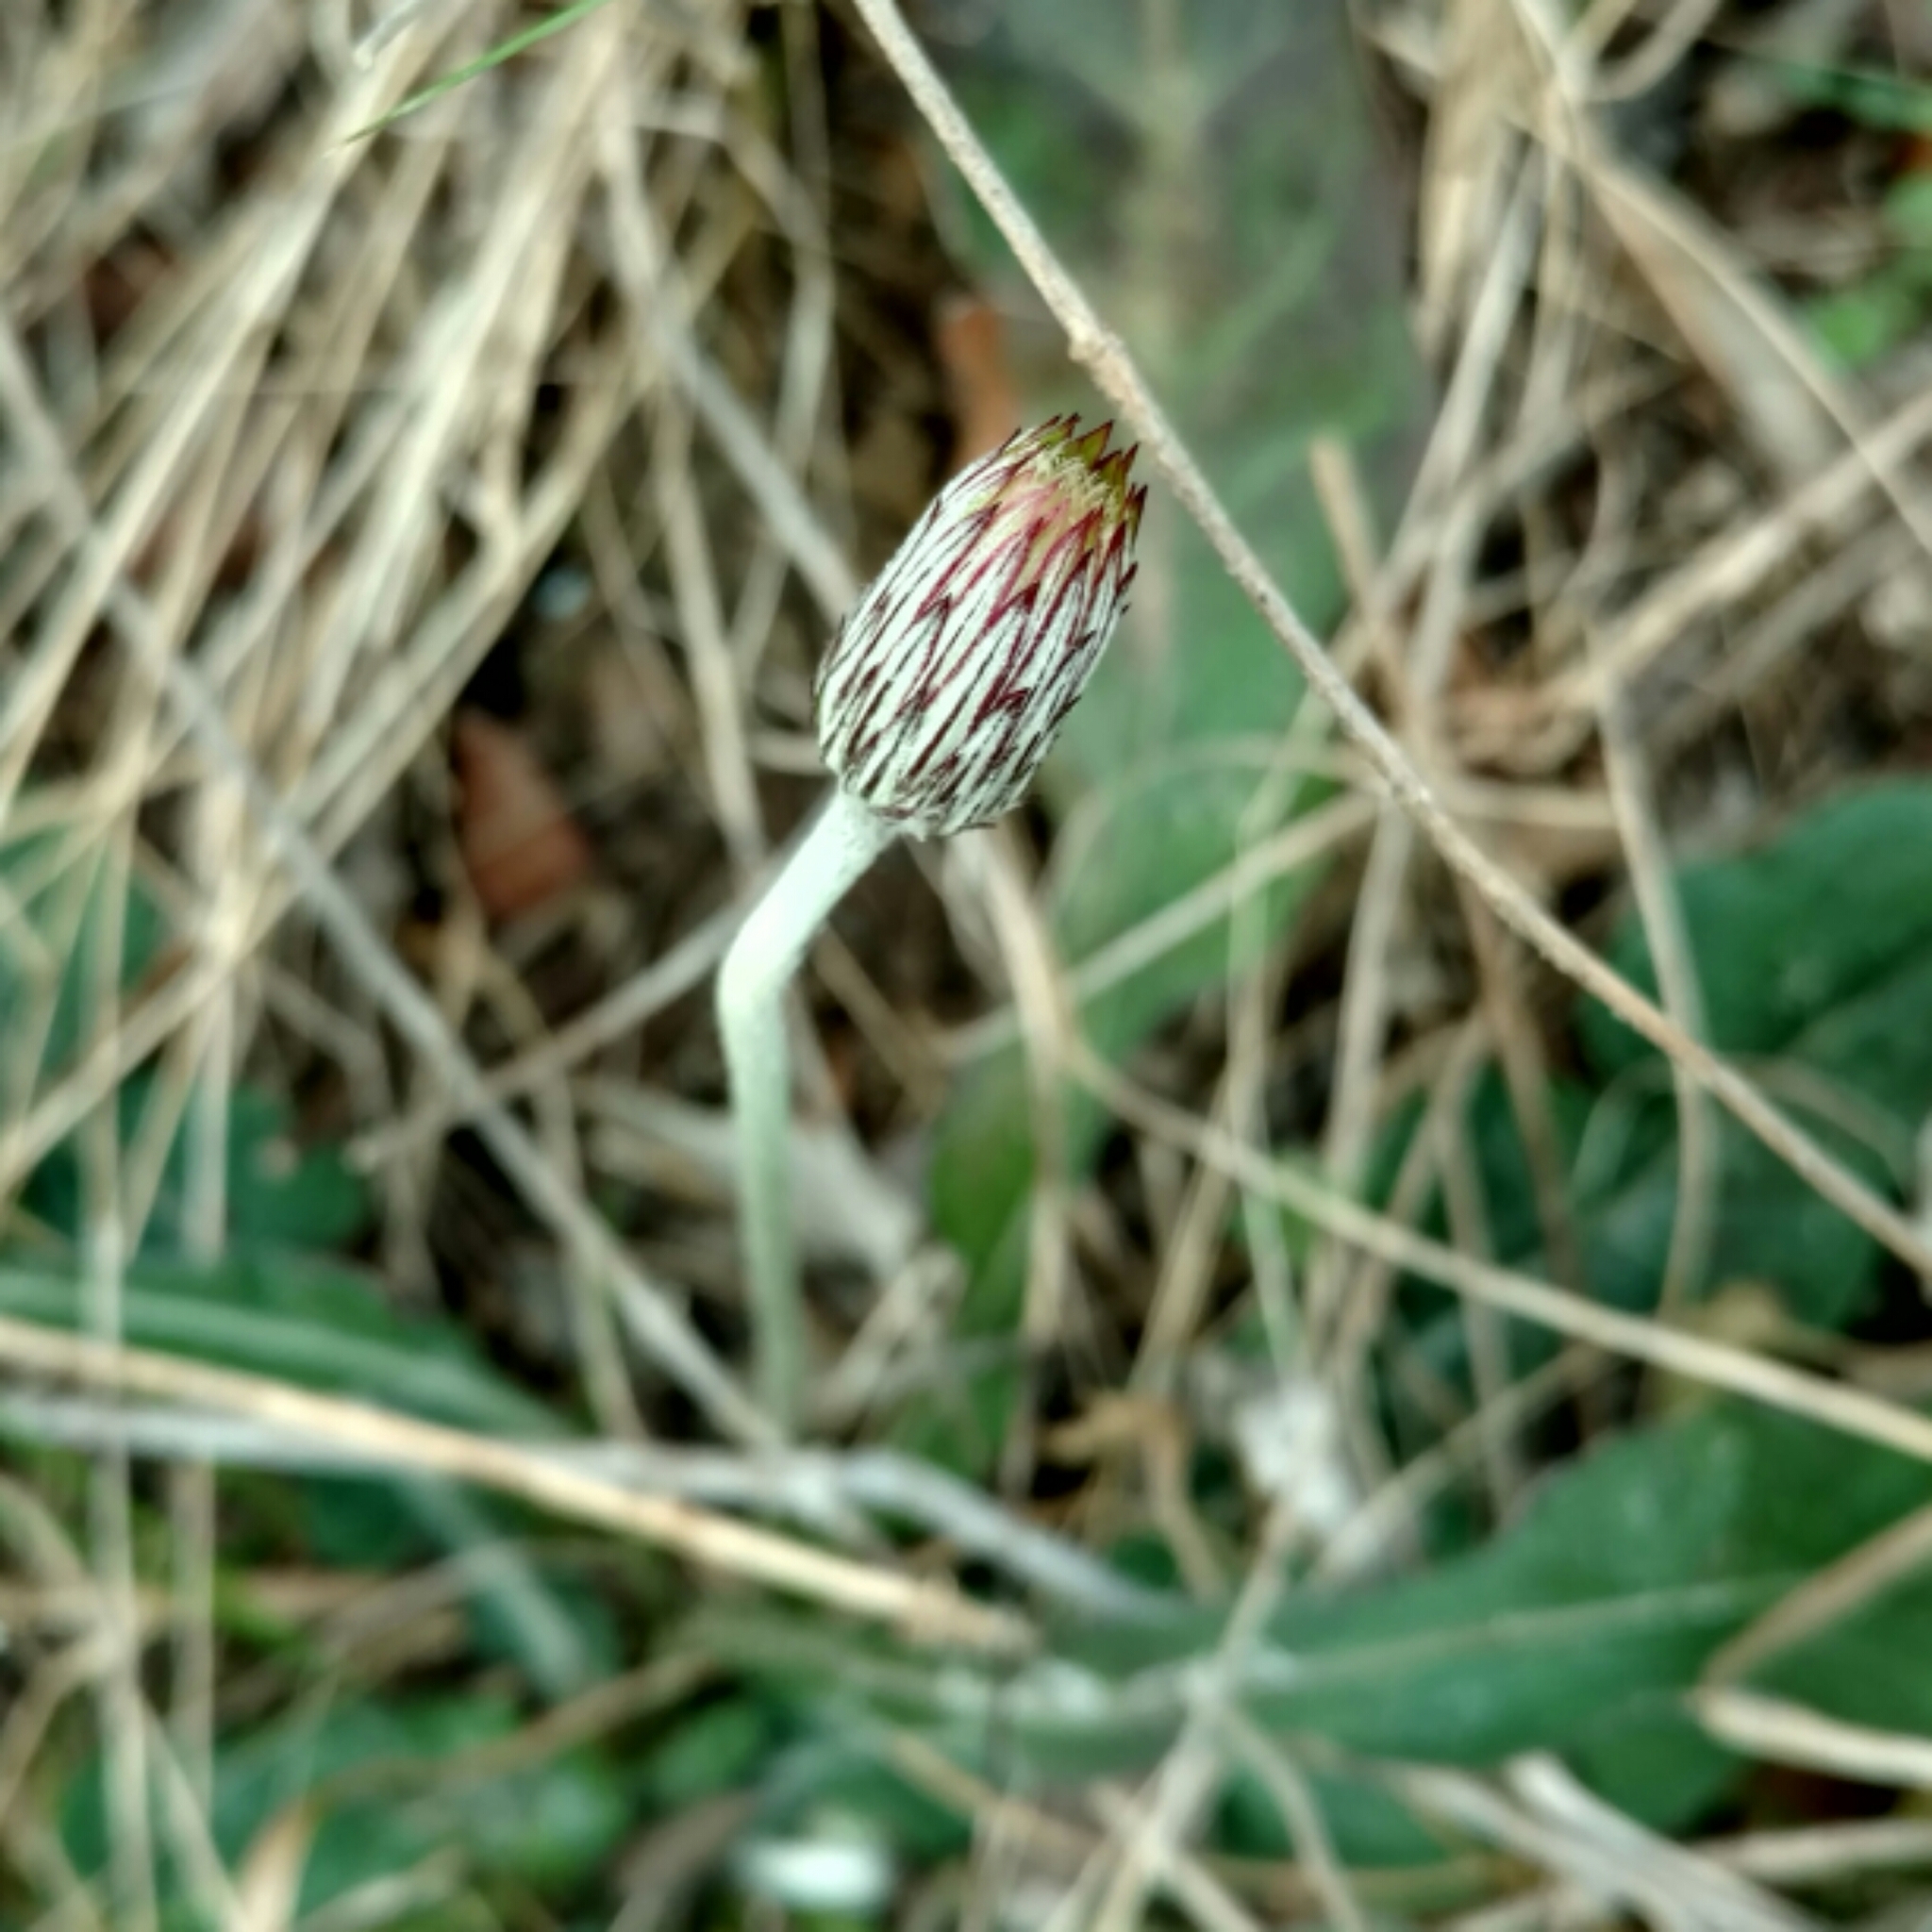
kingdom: Plantae
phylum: Tracheophyta
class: Magnoliopsida
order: Asterales
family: Asteraceae
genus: Chaptalia
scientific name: Chaptalia texana
